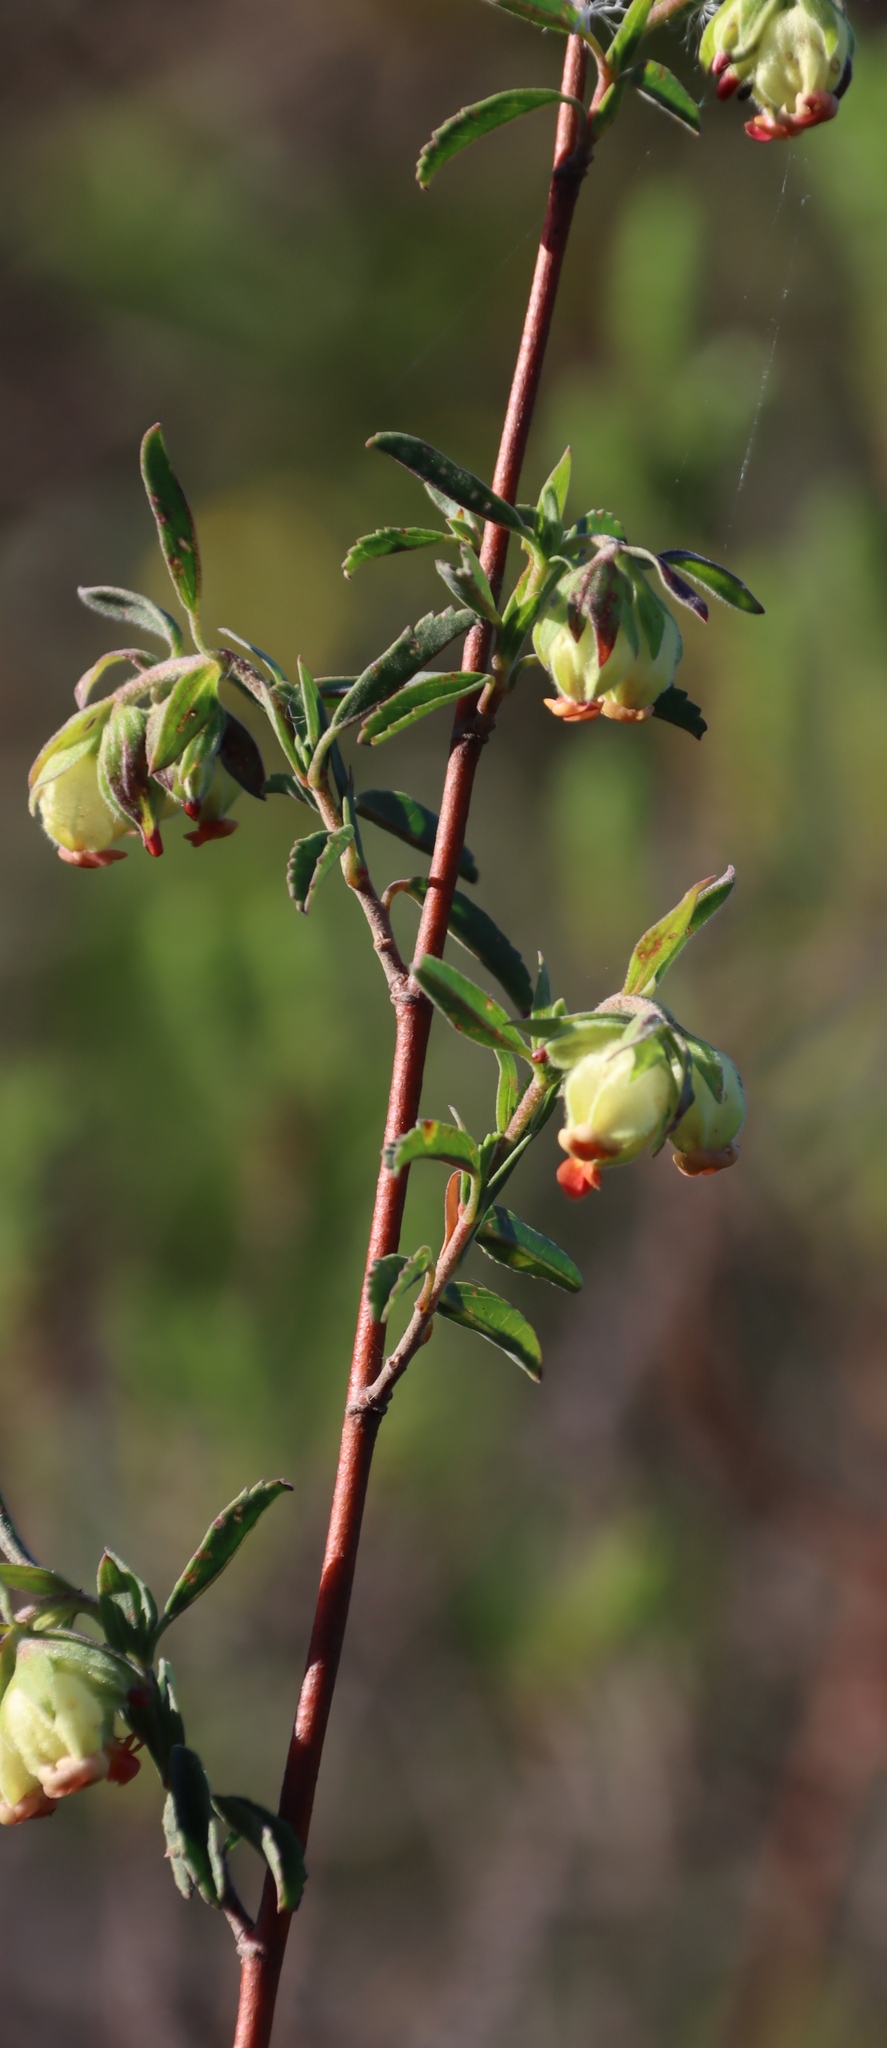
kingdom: Plantae
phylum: Tracheophyta
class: Magnoliopsida
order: Malvales
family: Malvaceae
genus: Hermannia
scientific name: Hermannia hyssopifolia
